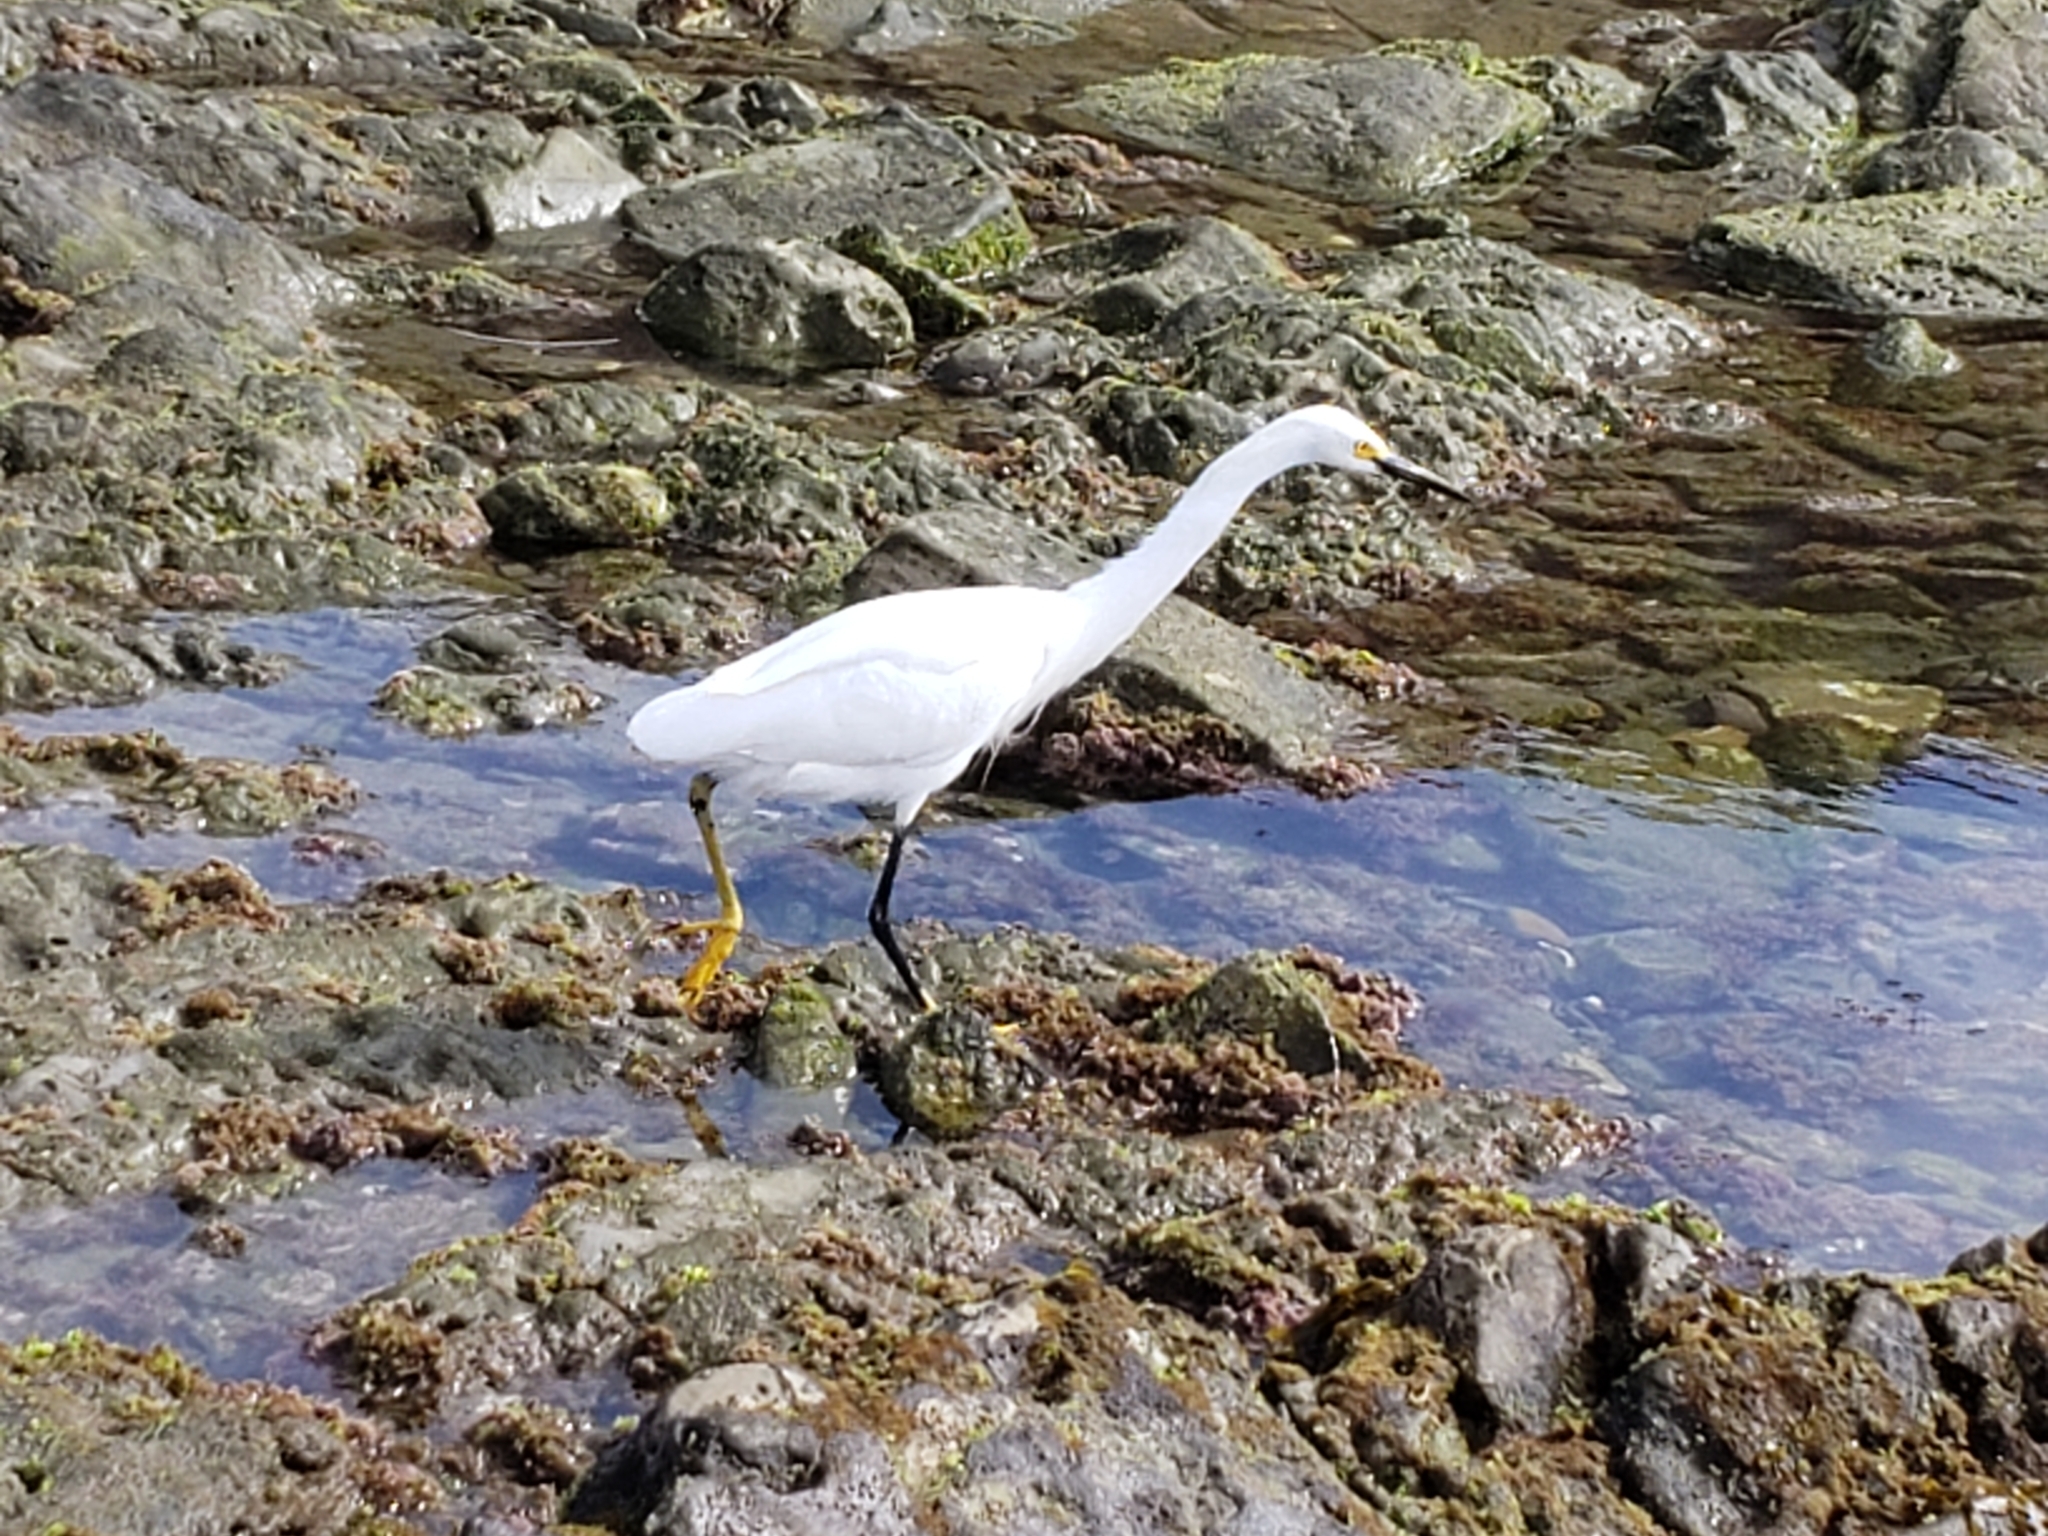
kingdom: Animalia
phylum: Chordata
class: Aves
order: Pelecaniformes
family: Ardeidae
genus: Egretta
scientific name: Egretta thula
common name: Snowy egret
